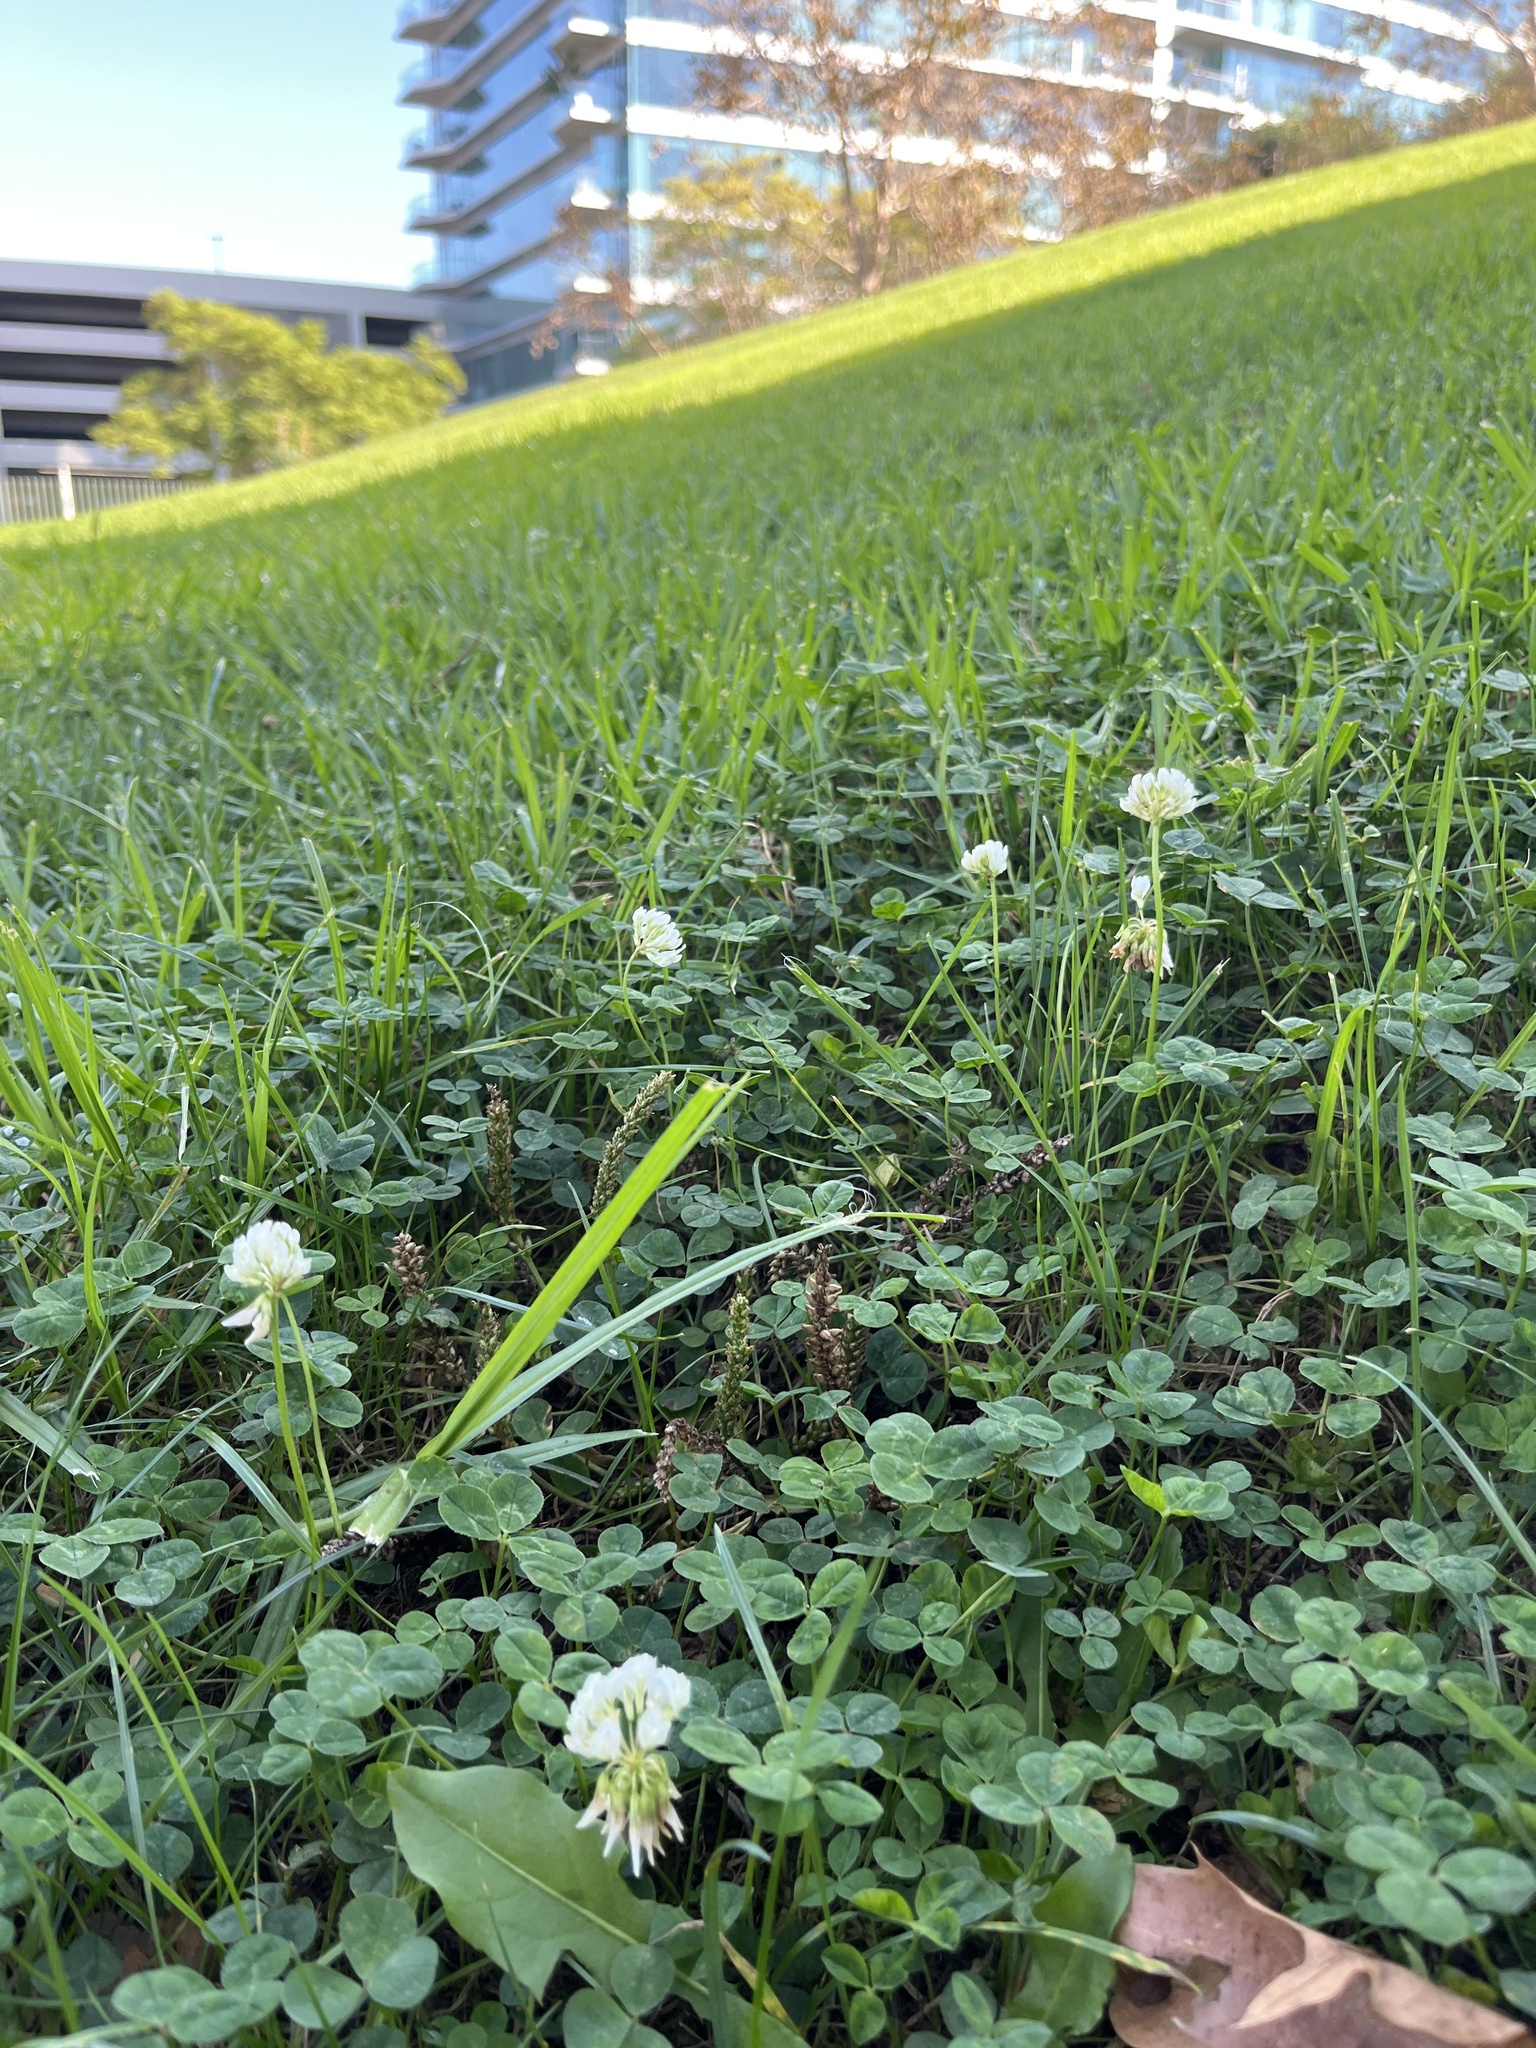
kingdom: Plantae
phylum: Tracheophyta
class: Magnoliopsida
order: Fabales
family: Fabaceae
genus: Trifolium
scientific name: Trifolium repens
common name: White clover
